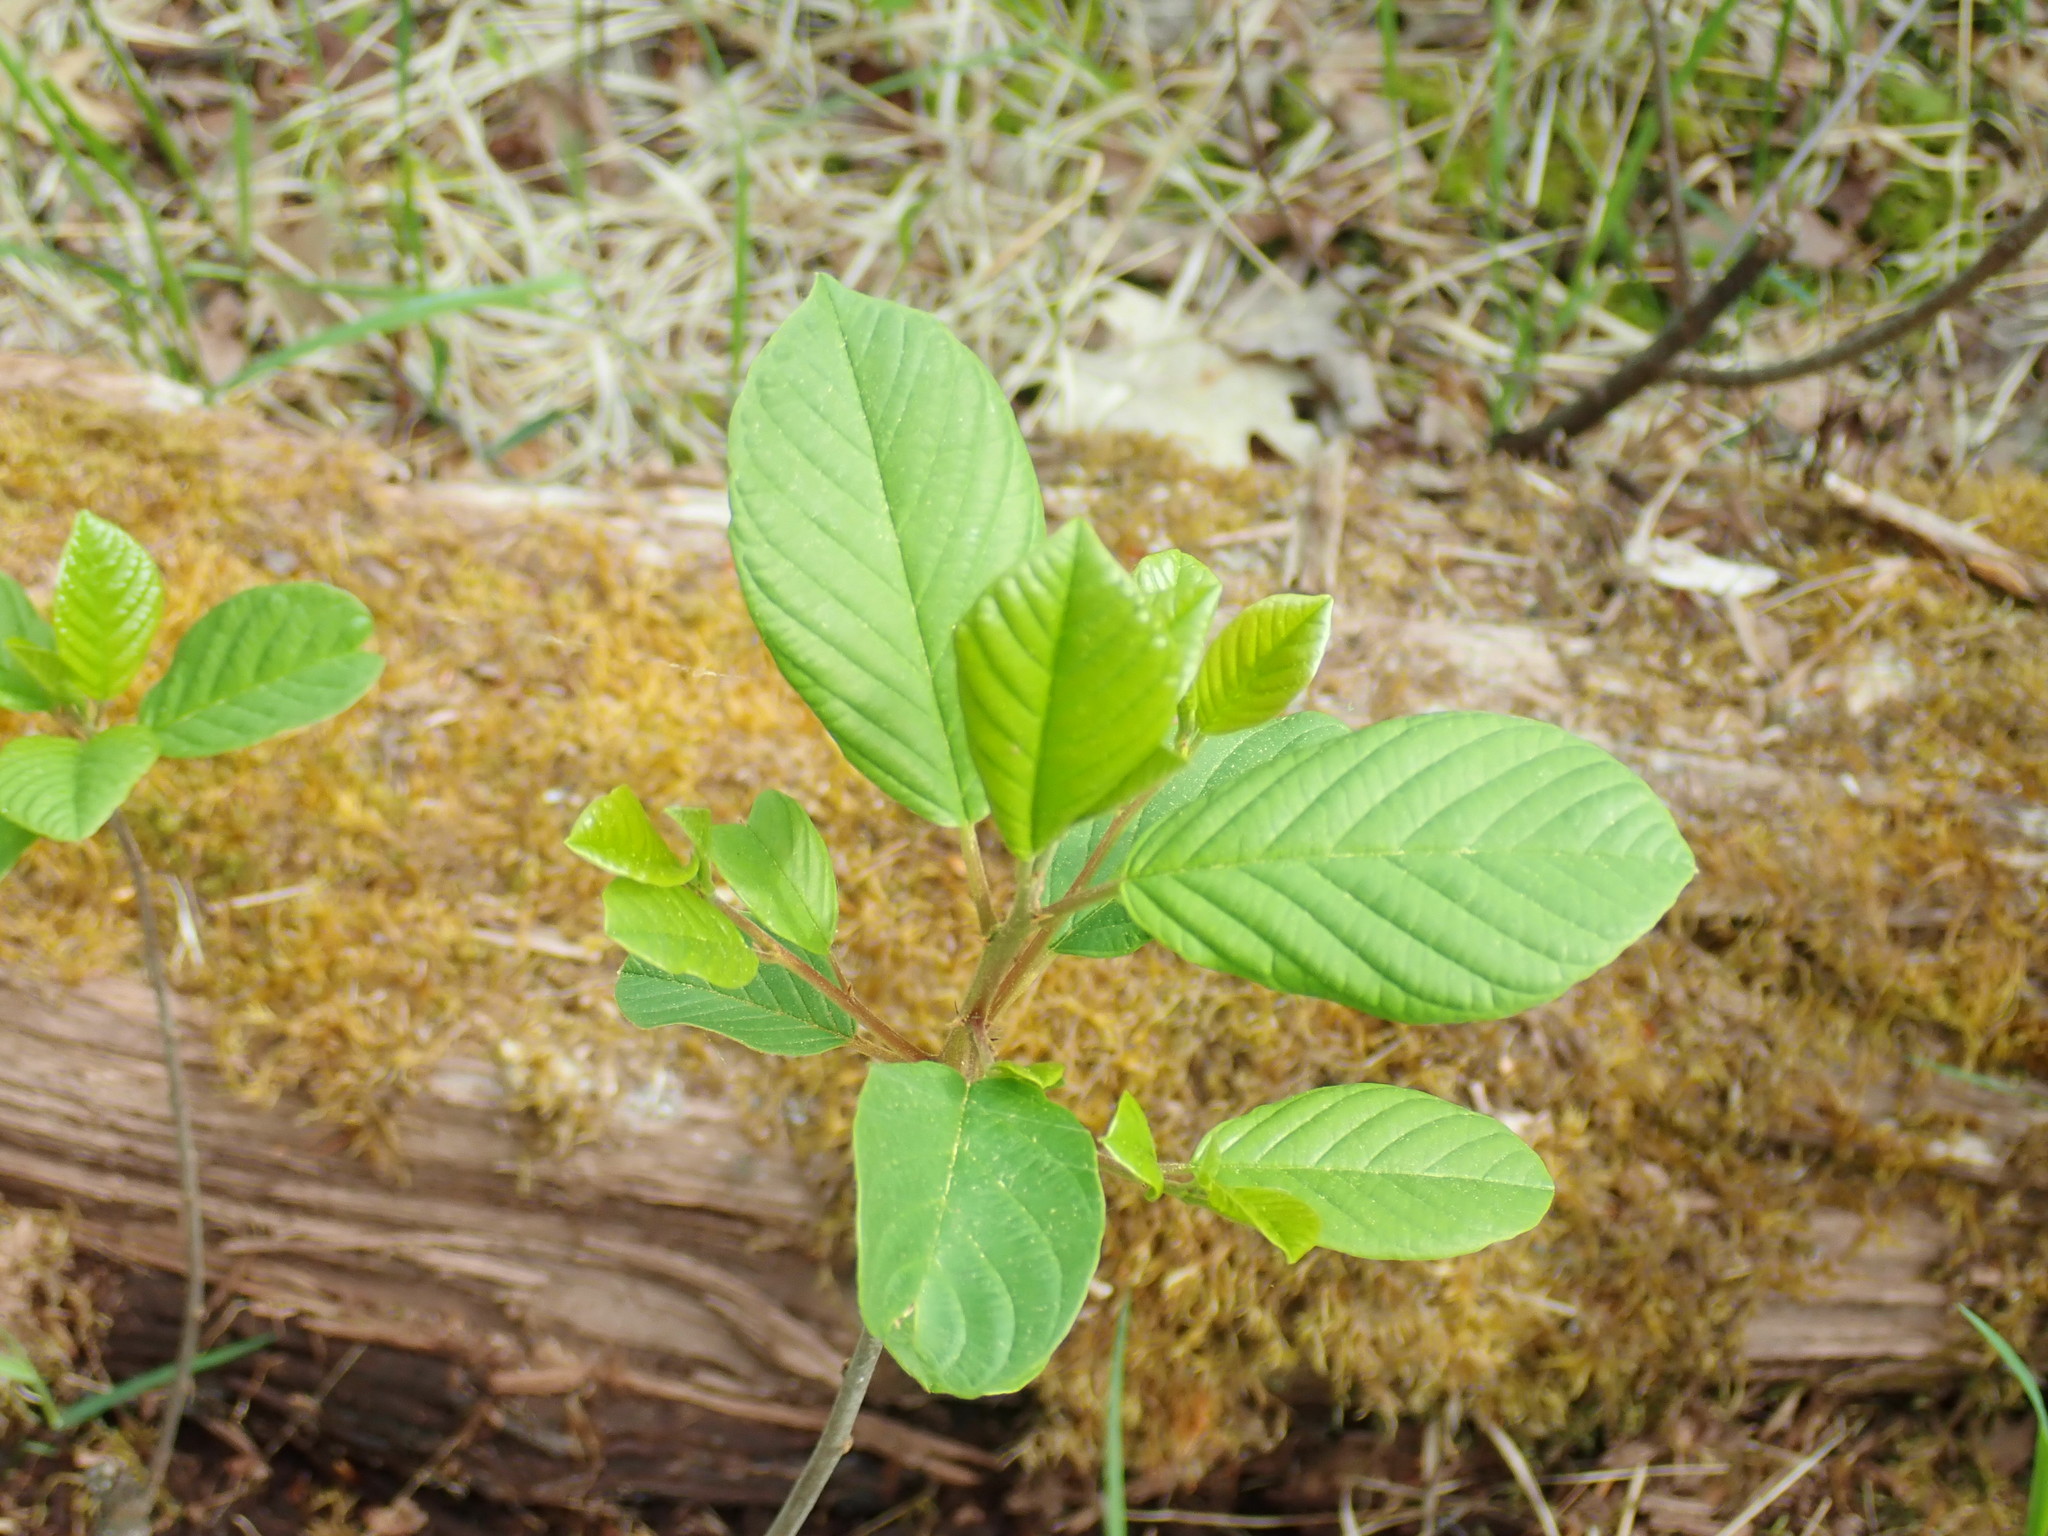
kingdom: Plantae
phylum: Tracheophyta
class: Magnoliopsida
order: Rosales
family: Rhamnaceae
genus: Frangula
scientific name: Frangula alnus
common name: Alder buckthorn
